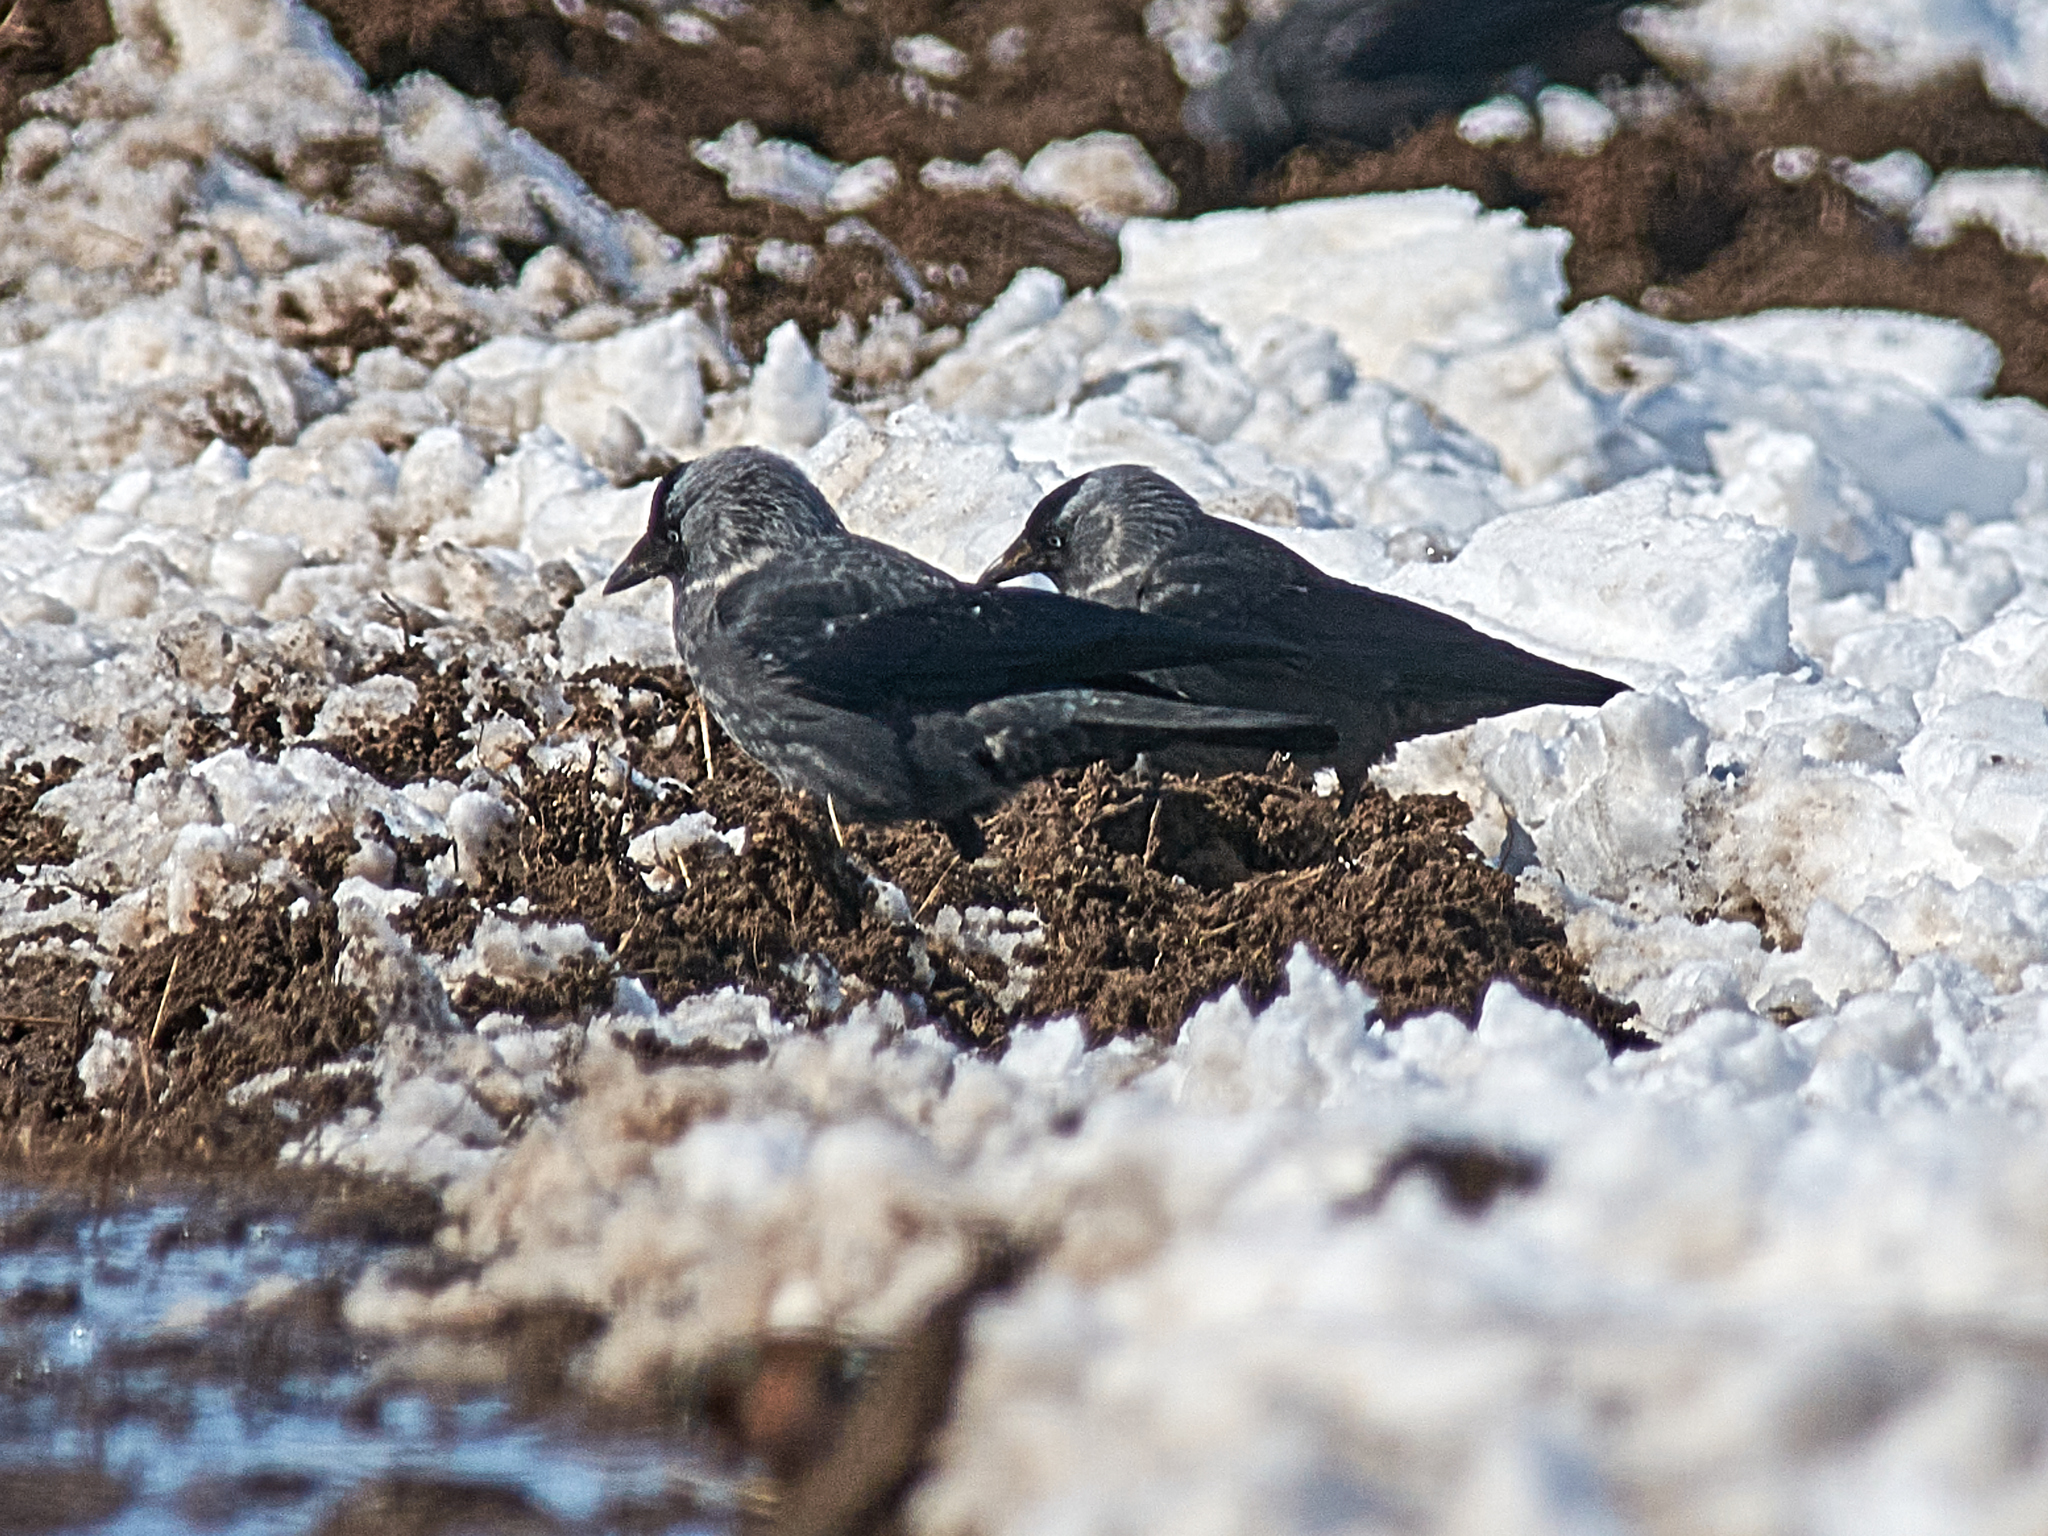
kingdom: Animalia
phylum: Chordata
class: Aves
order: Passeriformes
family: Corvidae
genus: Coloeus
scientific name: Coloeus monedula
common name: Western jackdaw
